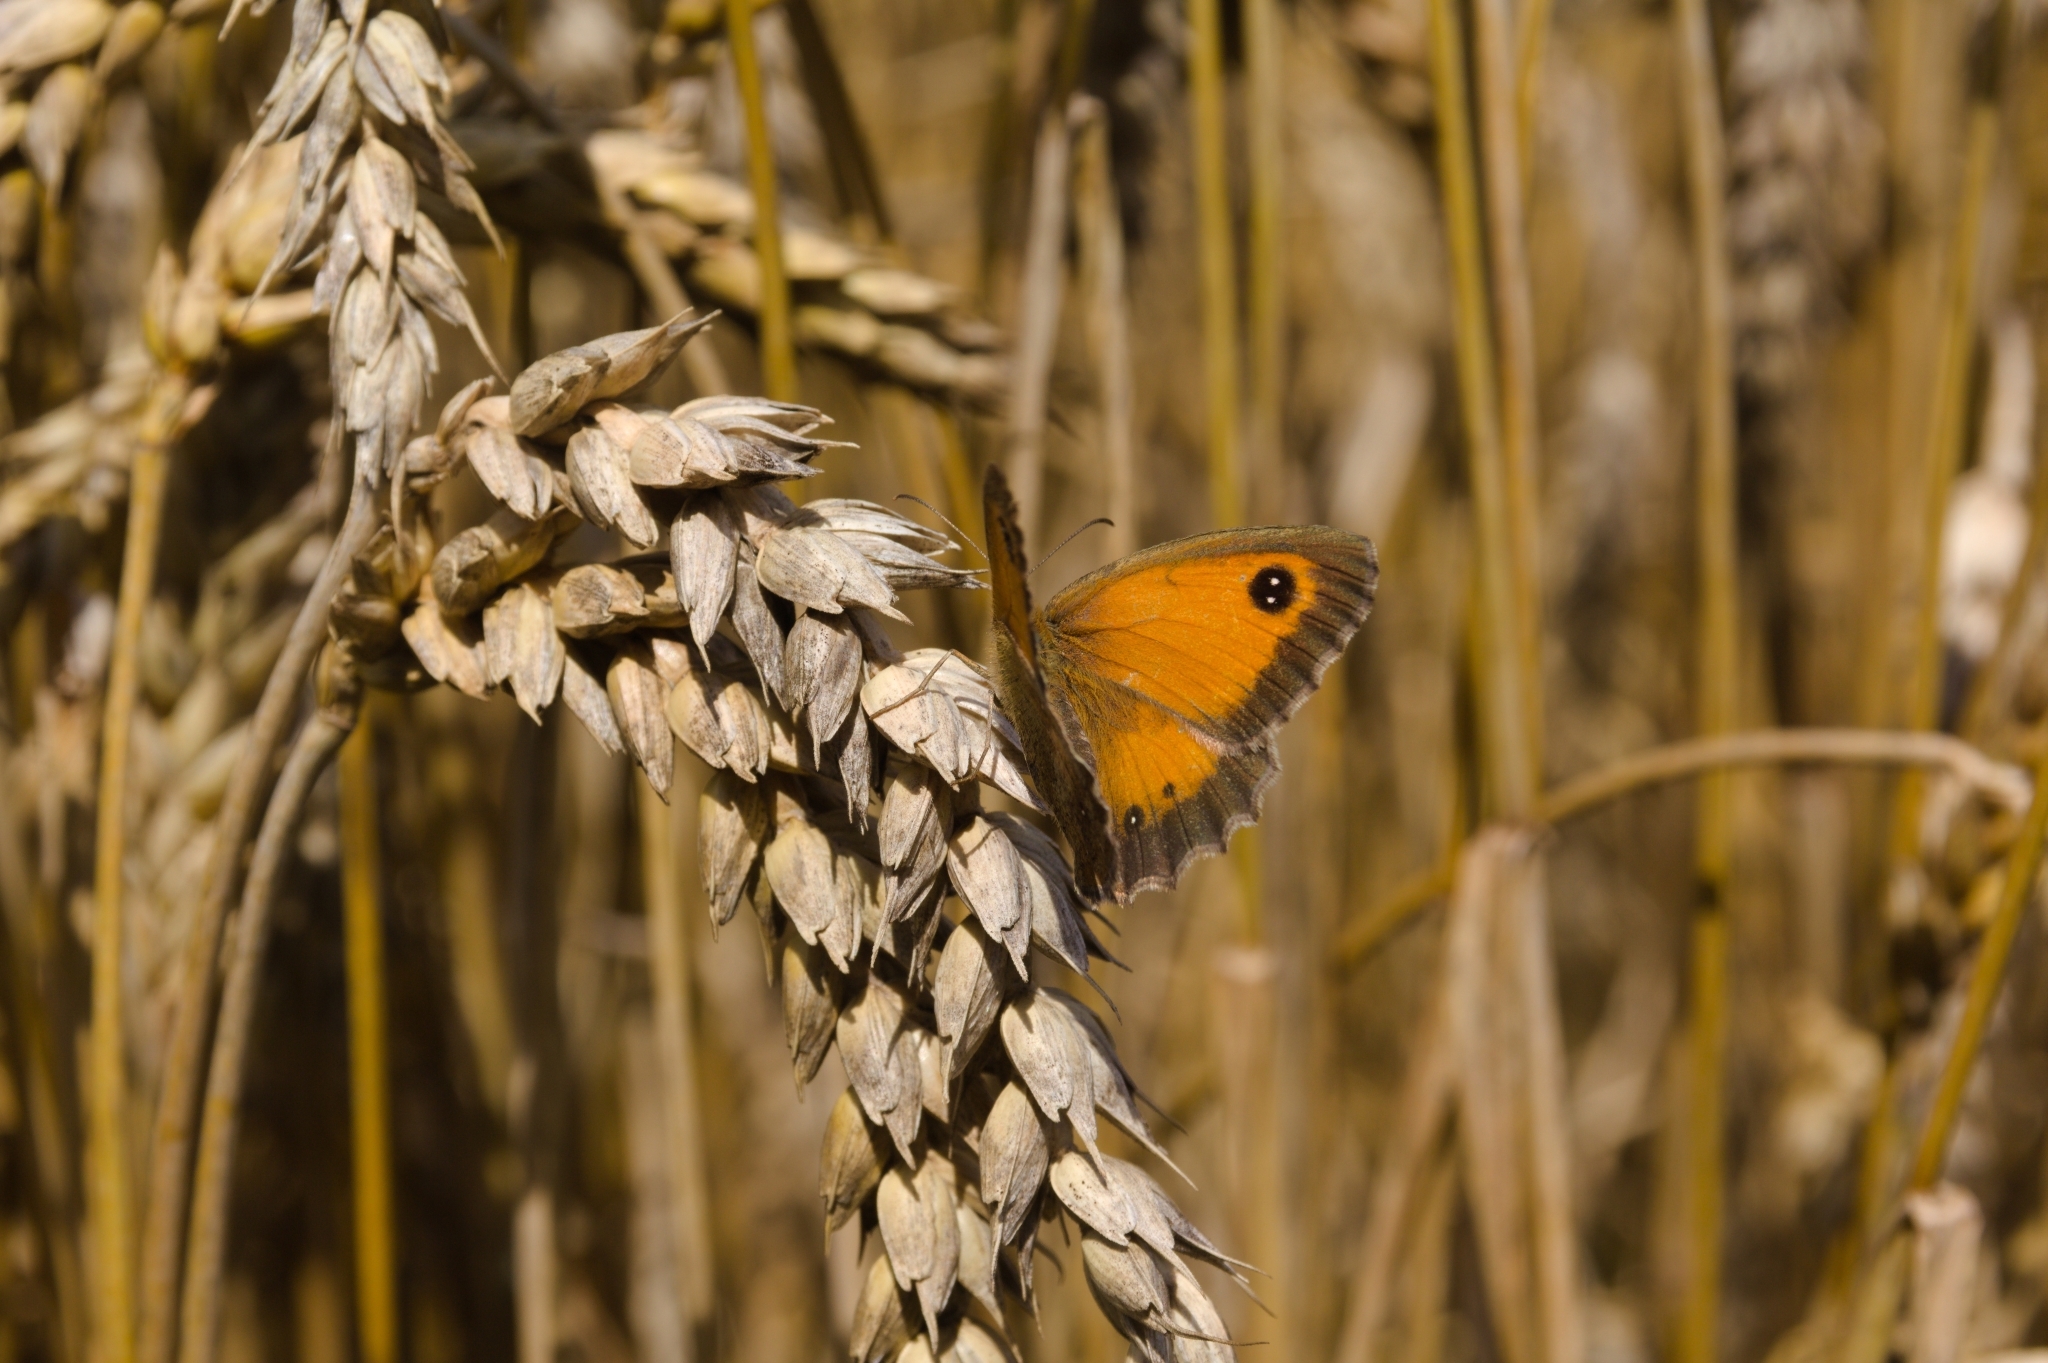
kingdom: Animalia
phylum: Arthropoda
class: Insecta
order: Lepidoptera
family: Nymphalidae
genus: Pyronia
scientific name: Pyronia tithonus
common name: Gatekeeper
